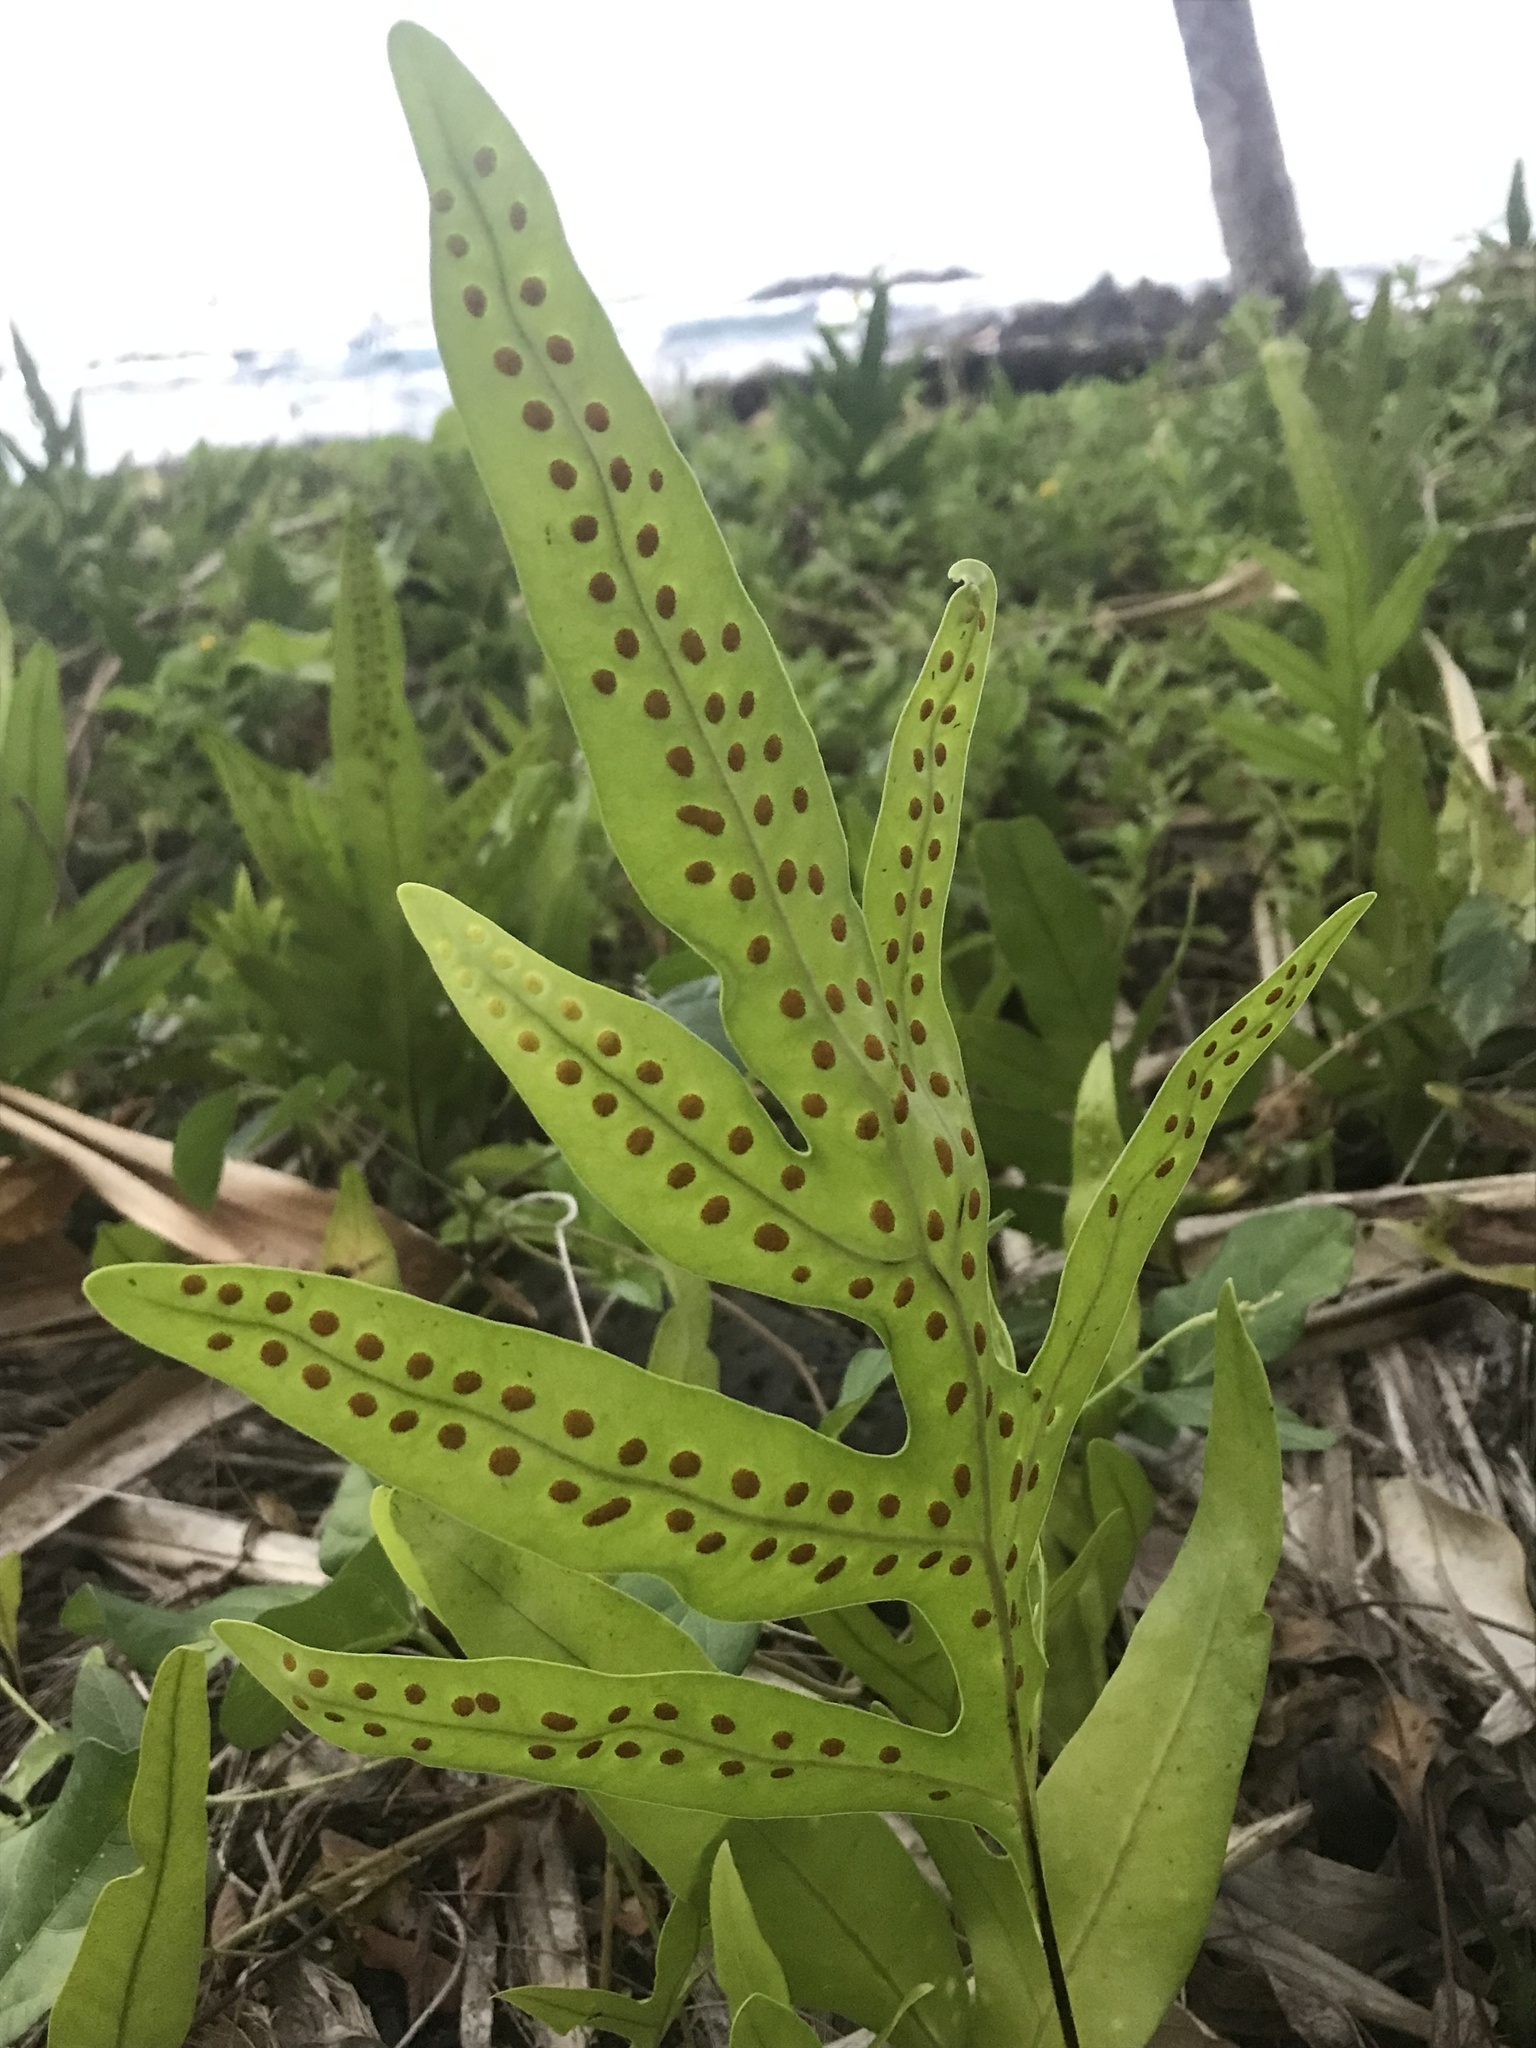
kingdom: Plantae
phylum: Tracheophyta
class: Polypodiopsida
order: Polypodiales
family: Polypodiaceae
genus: Microsorum
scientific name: Microsorum grossum
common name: Musk fern
